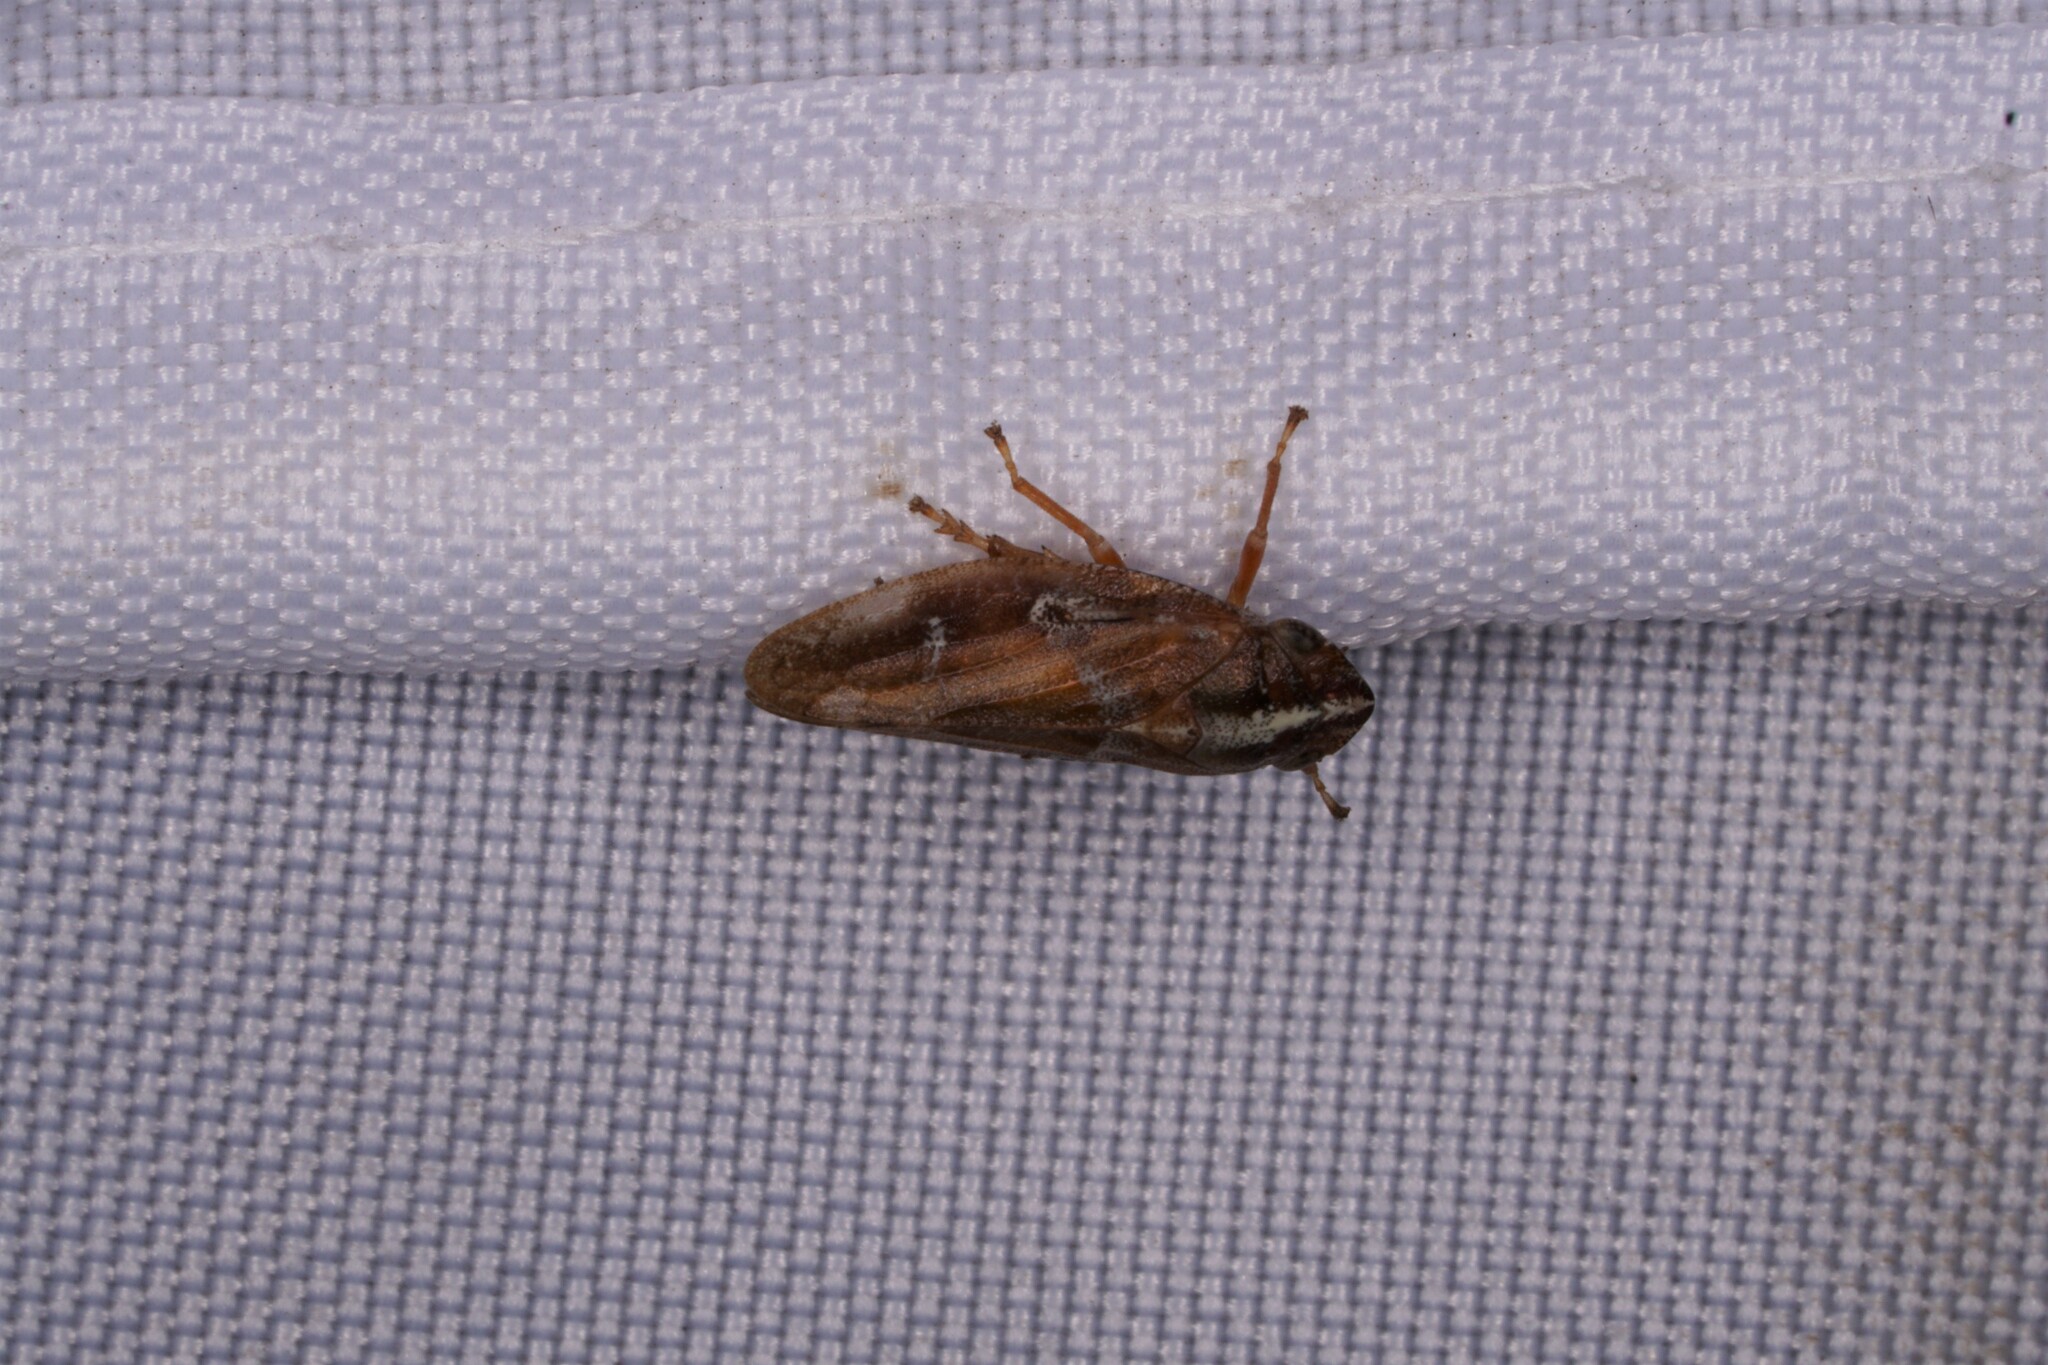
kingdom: Animalia
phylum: Arthropoda
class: Insecta
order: Hemiptera
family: Aphrophoridae
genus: Aphrophora
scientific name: Aphrophora saratogensis
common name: Saratoga spittlebug
